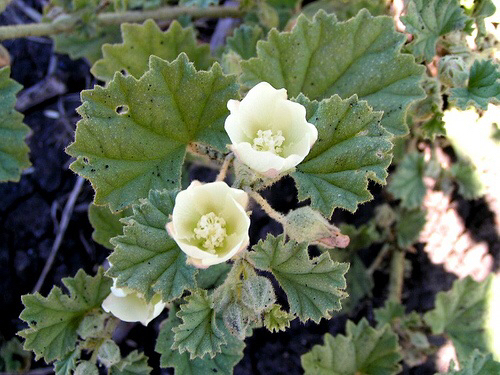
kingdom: Plantae
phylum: Tracheophyta
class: Magnoliopsida
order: Malvales
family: Malvaceae
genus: Malvella
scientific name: Malvella leprosa
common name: Alkali-mallow
